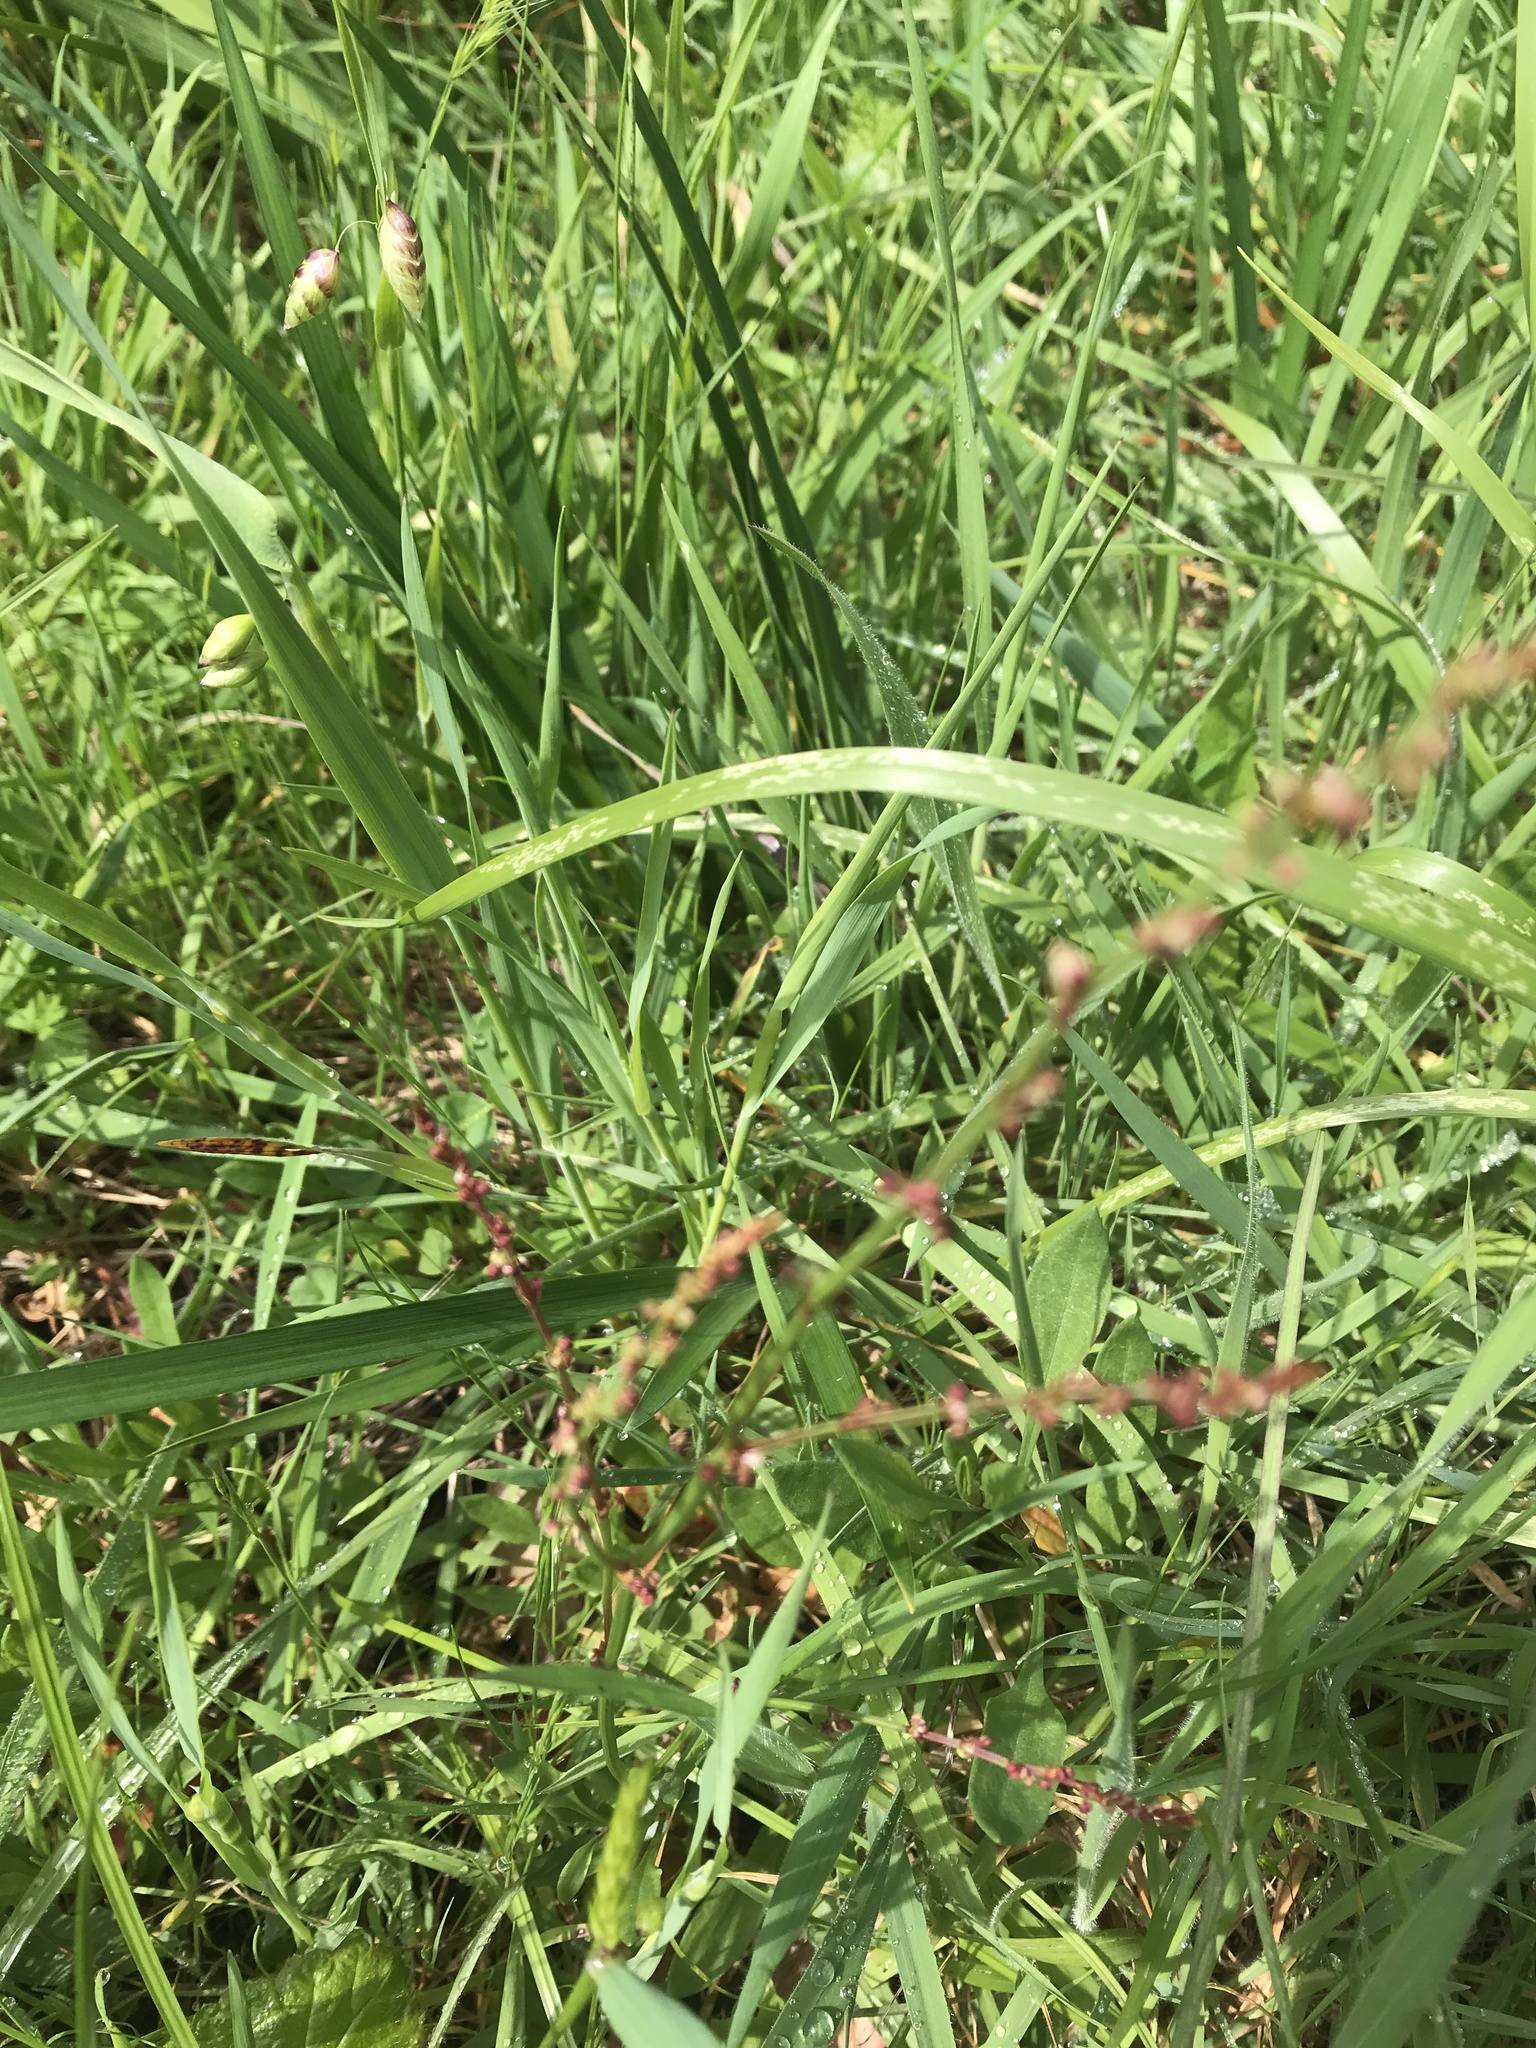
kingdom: Plantae
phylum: Tracheophyta
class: Magnoliopsida
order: Caryophyllales
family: Polygonaceae
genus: Rumex
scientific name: Rumex acetosella
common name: Common sheep sorrel
